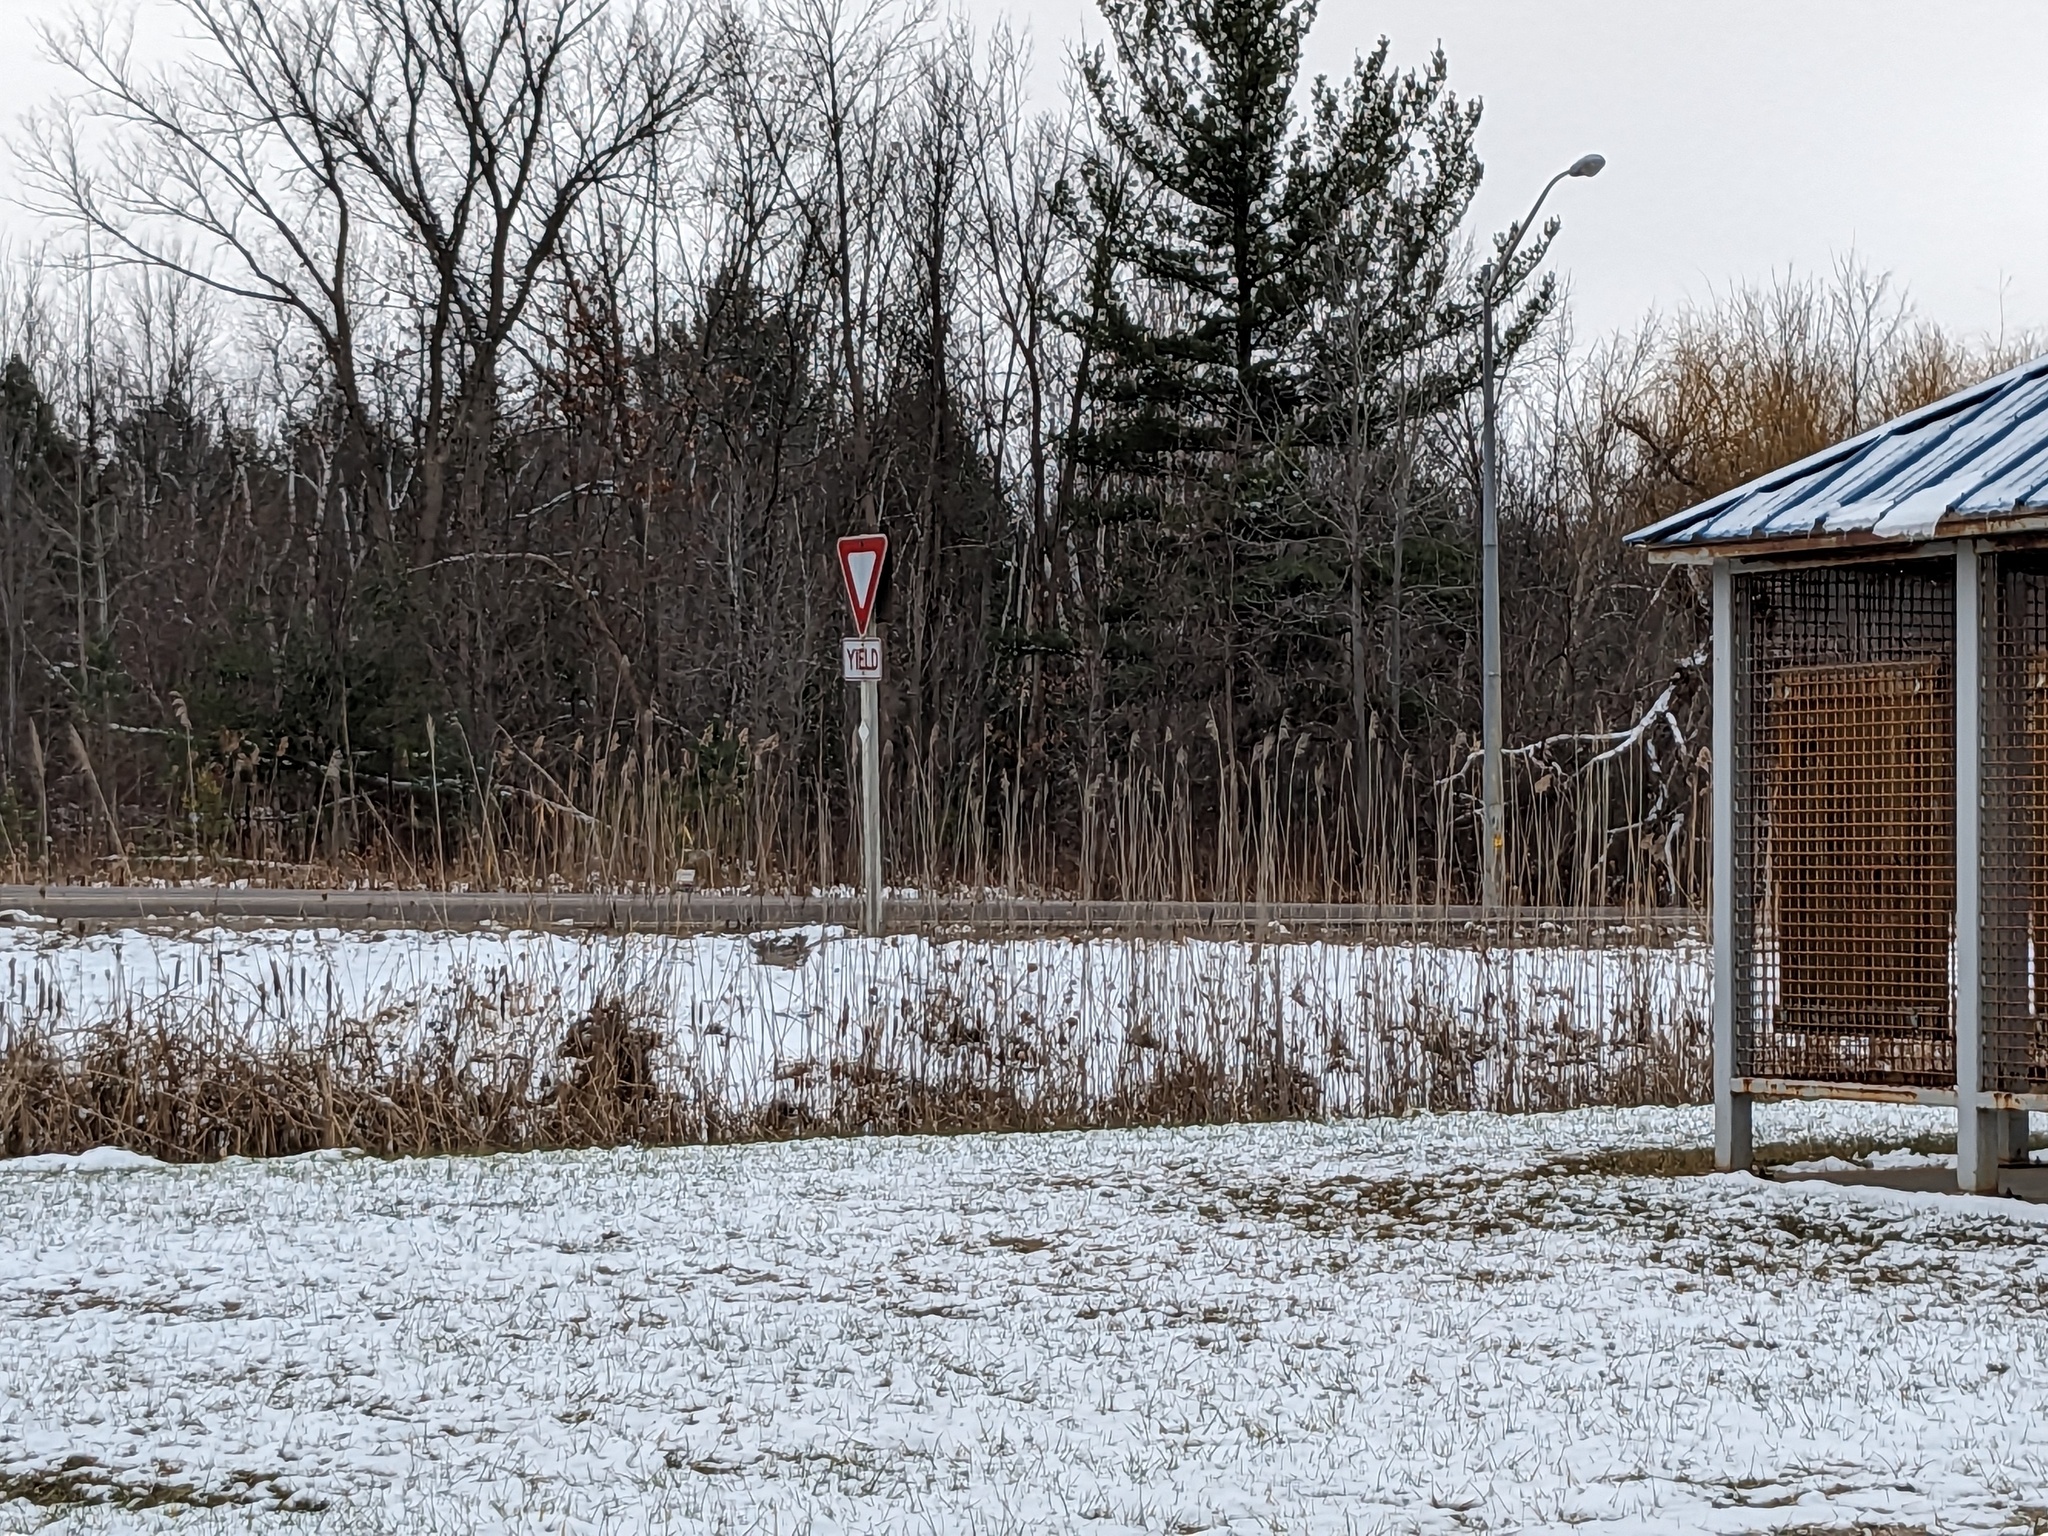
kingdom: Plantae
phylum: Tracheophyta
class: Liliopsida
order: Poales
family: Poaceae
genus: Phragmites
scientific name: Phragmites australis
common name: Common reed
